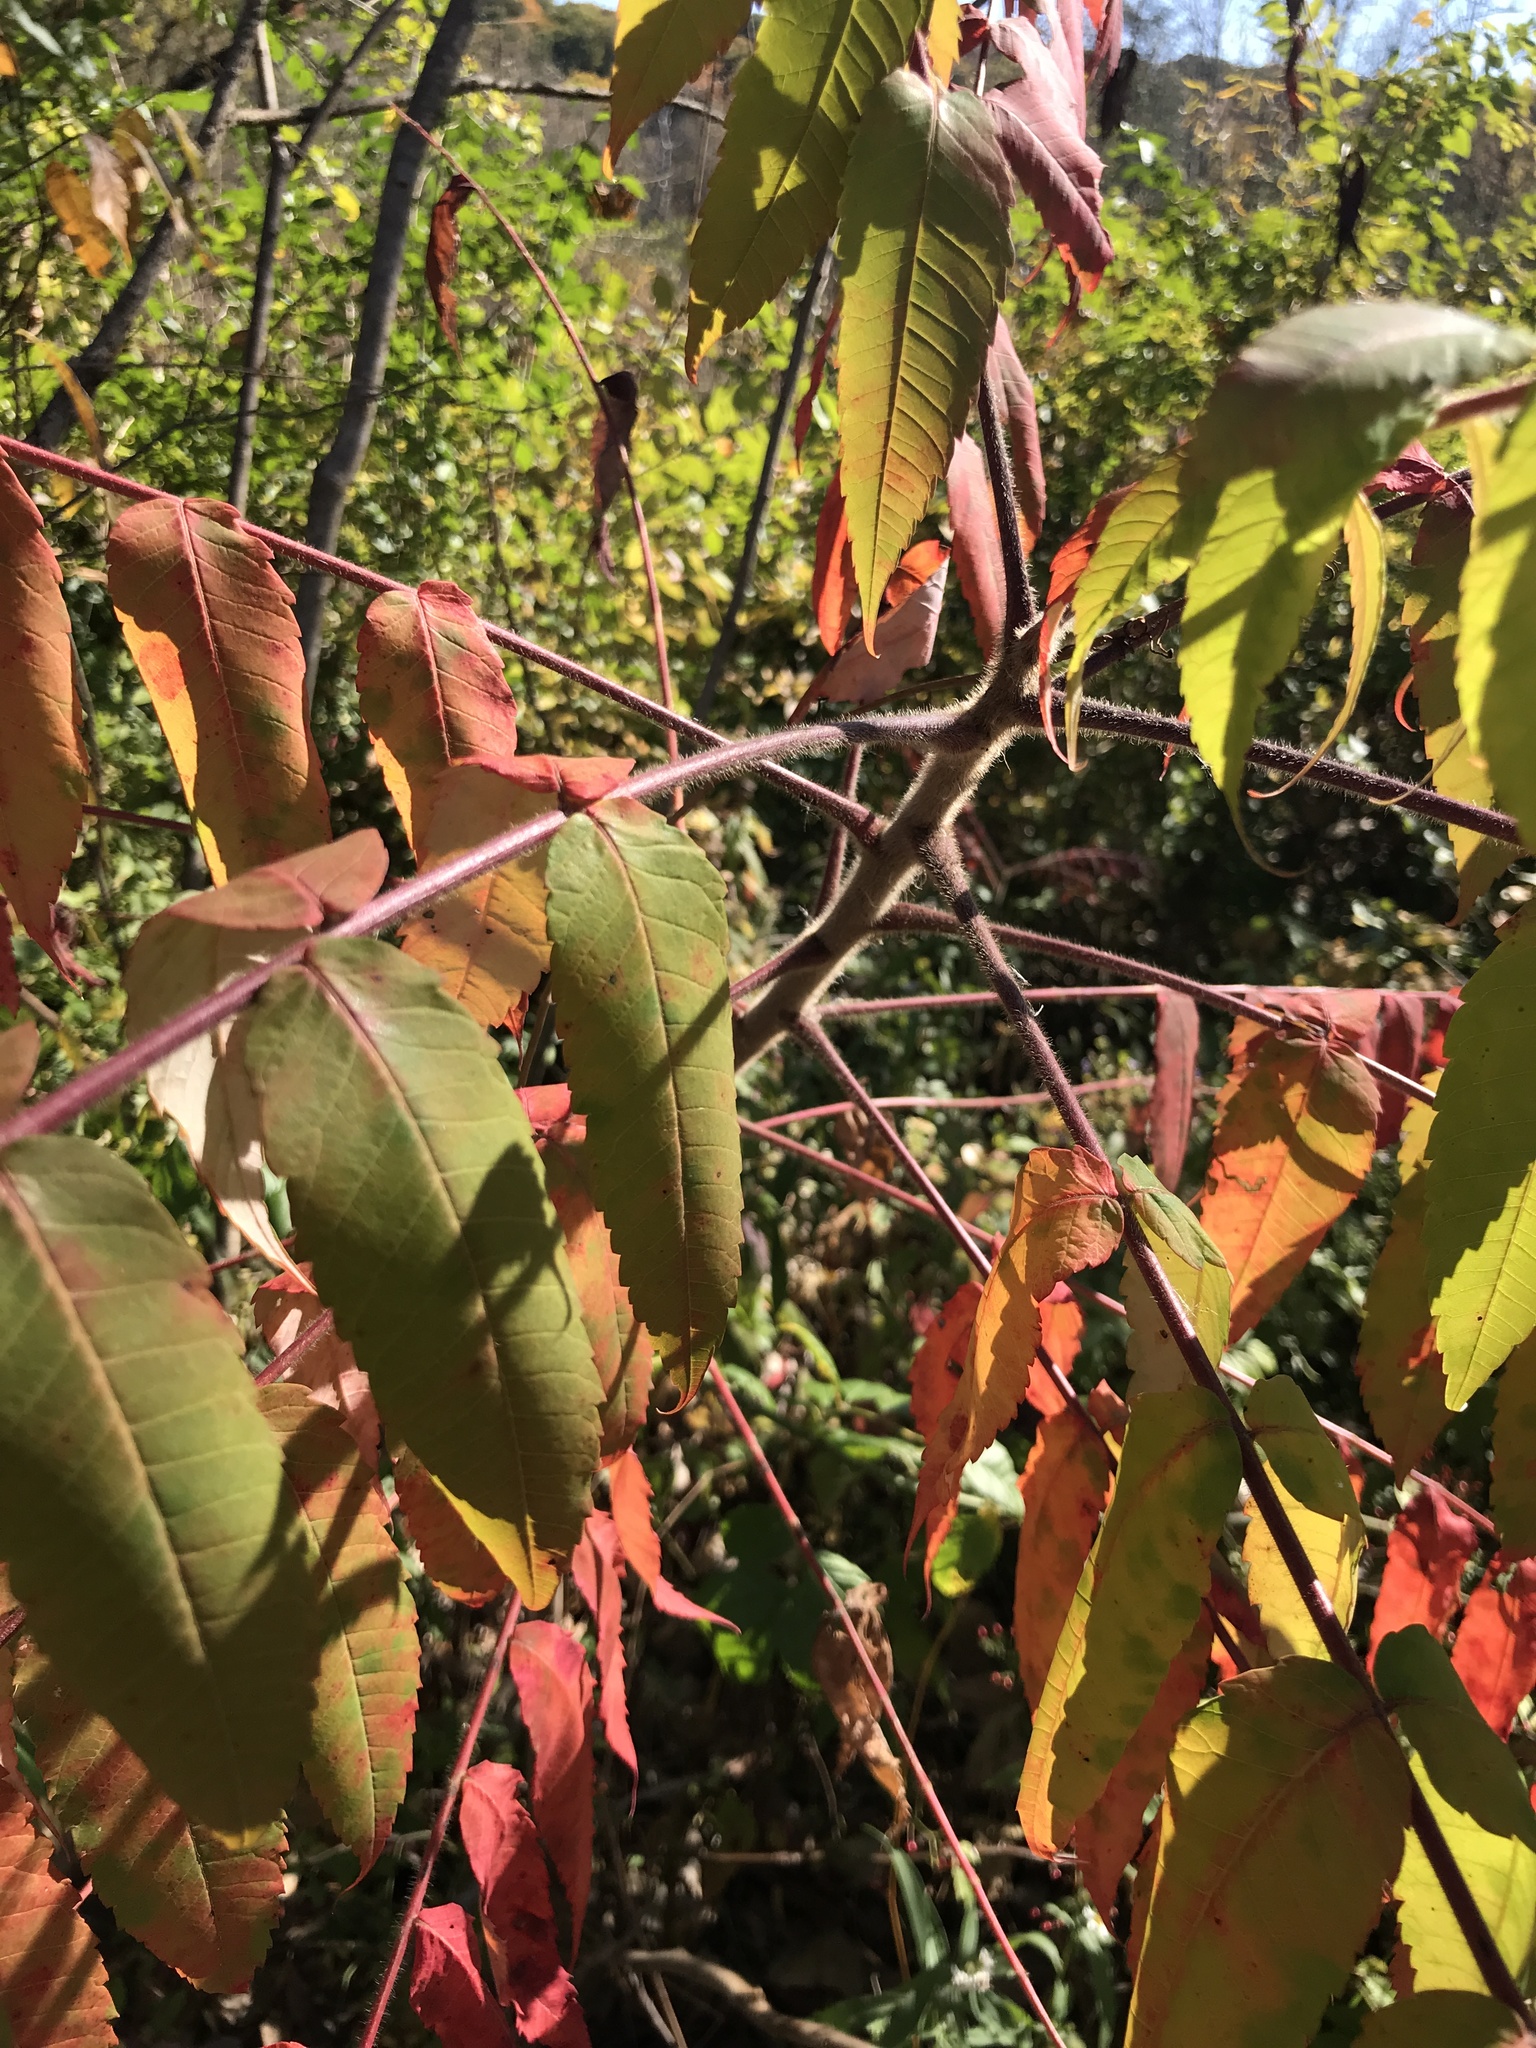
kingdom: Plantae
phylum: Tracheophyta
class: Magnoliopsida
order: Sapindales
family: Anacardiaceae
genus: Rhus
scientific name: Rhus typhina
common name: Staghorn sumac
